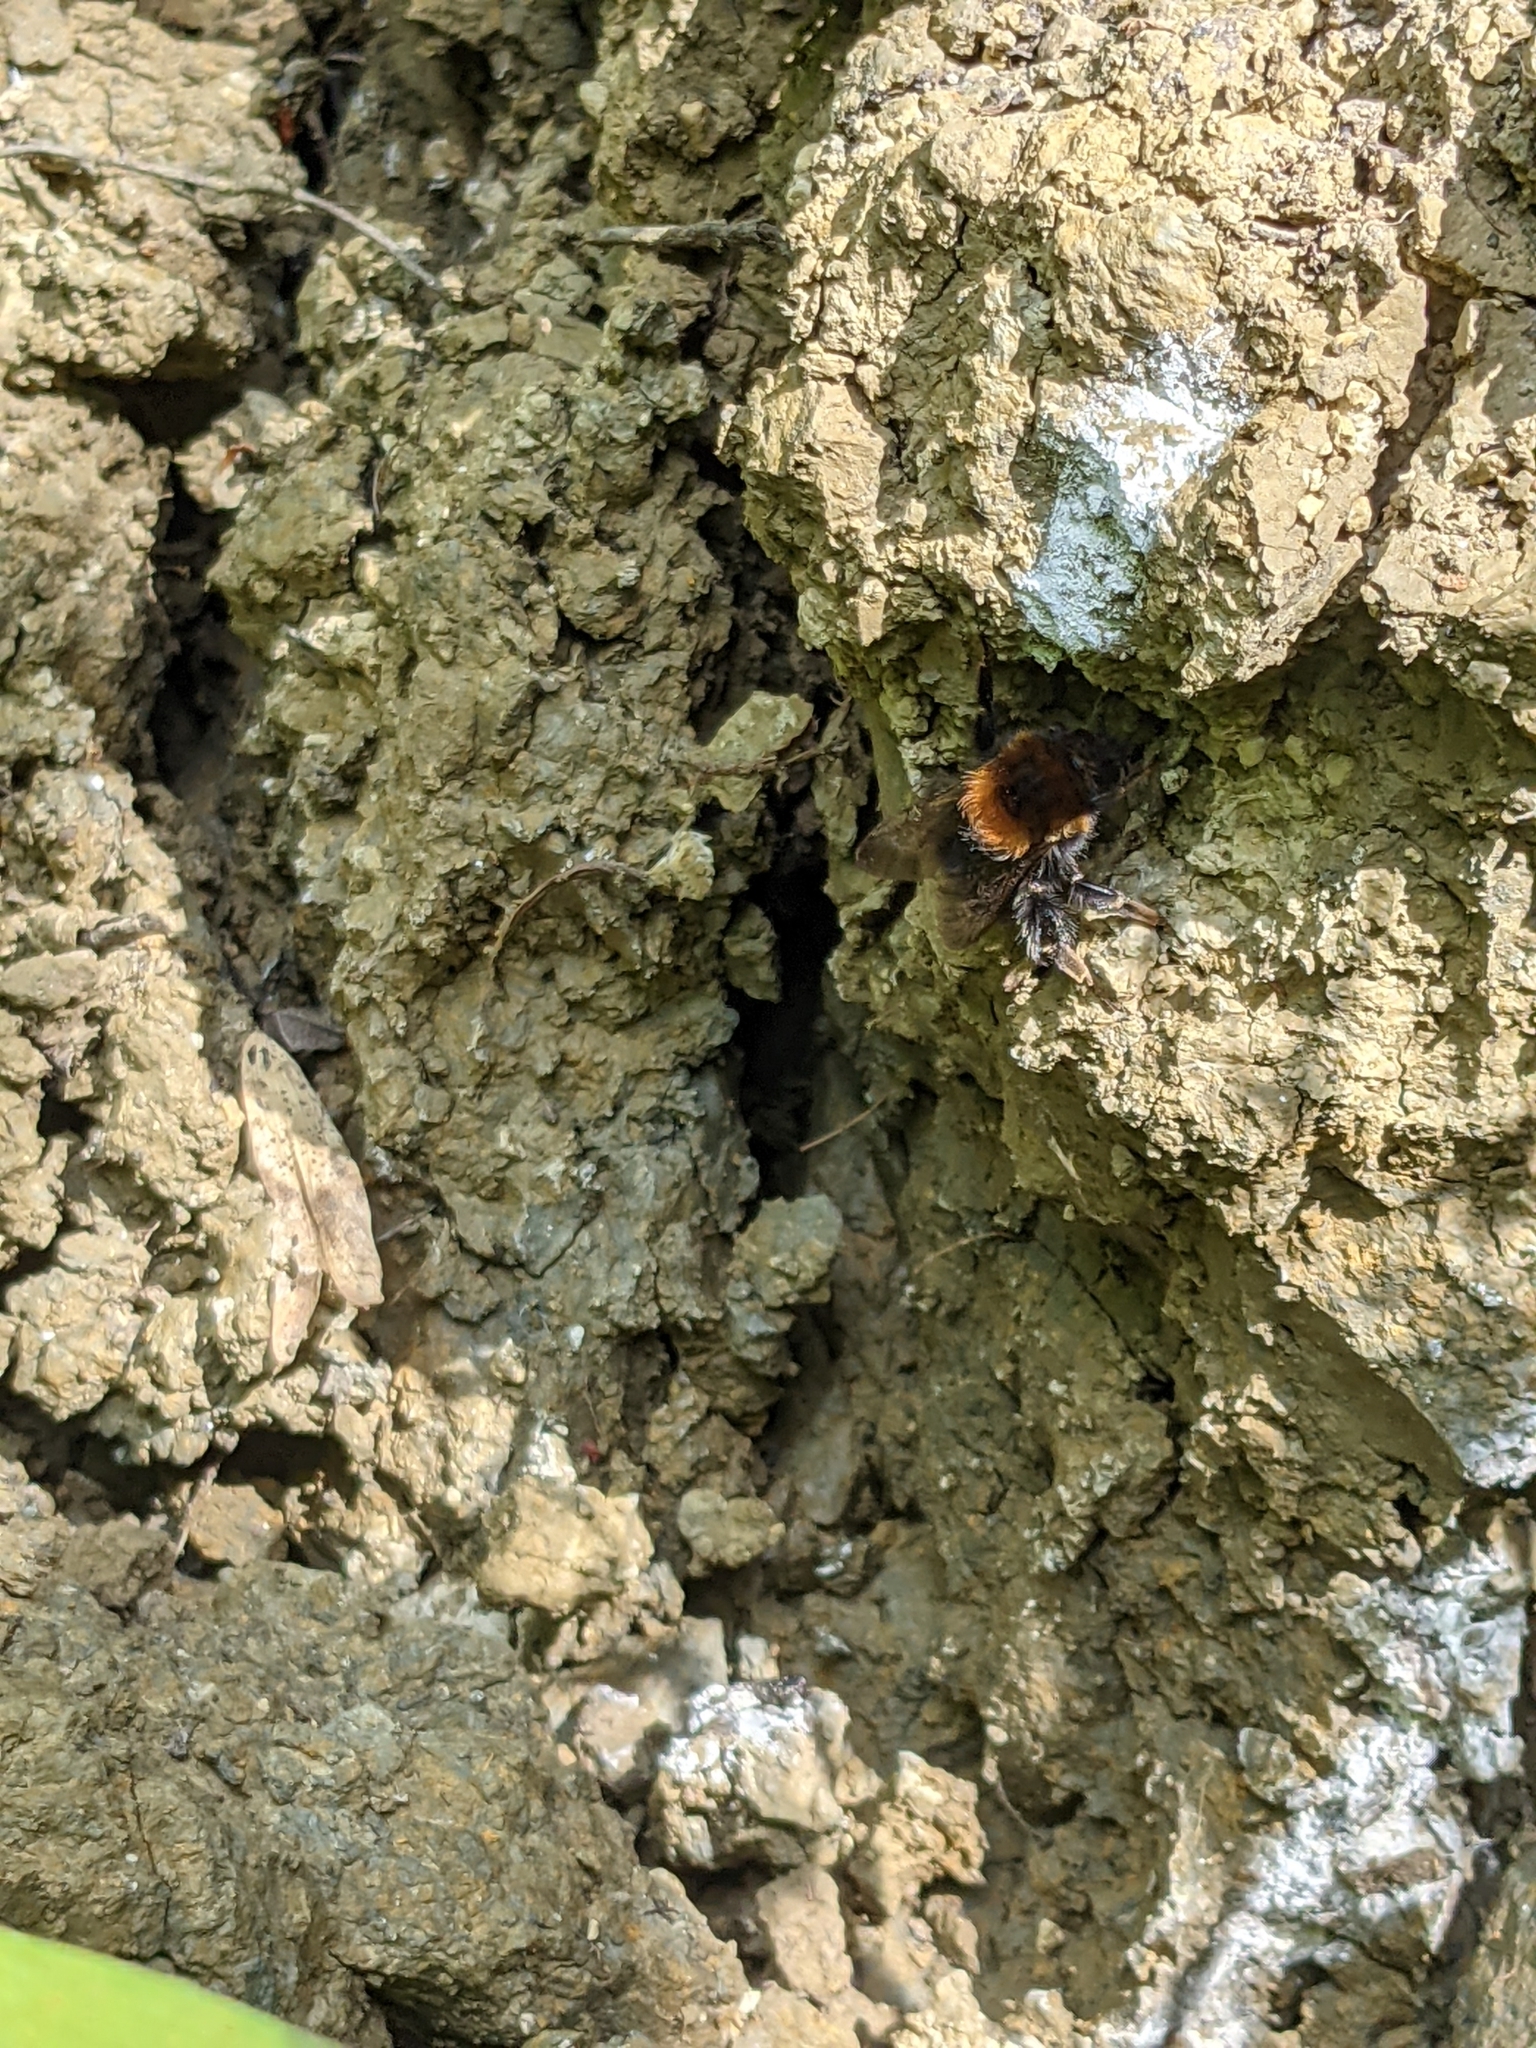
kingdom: Animalia
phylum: Arthropoda
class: Insecta
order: Hymenoptera
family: Apidae
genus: Bombus
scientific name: Bombus hypnorum
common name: New garden bumblebee
